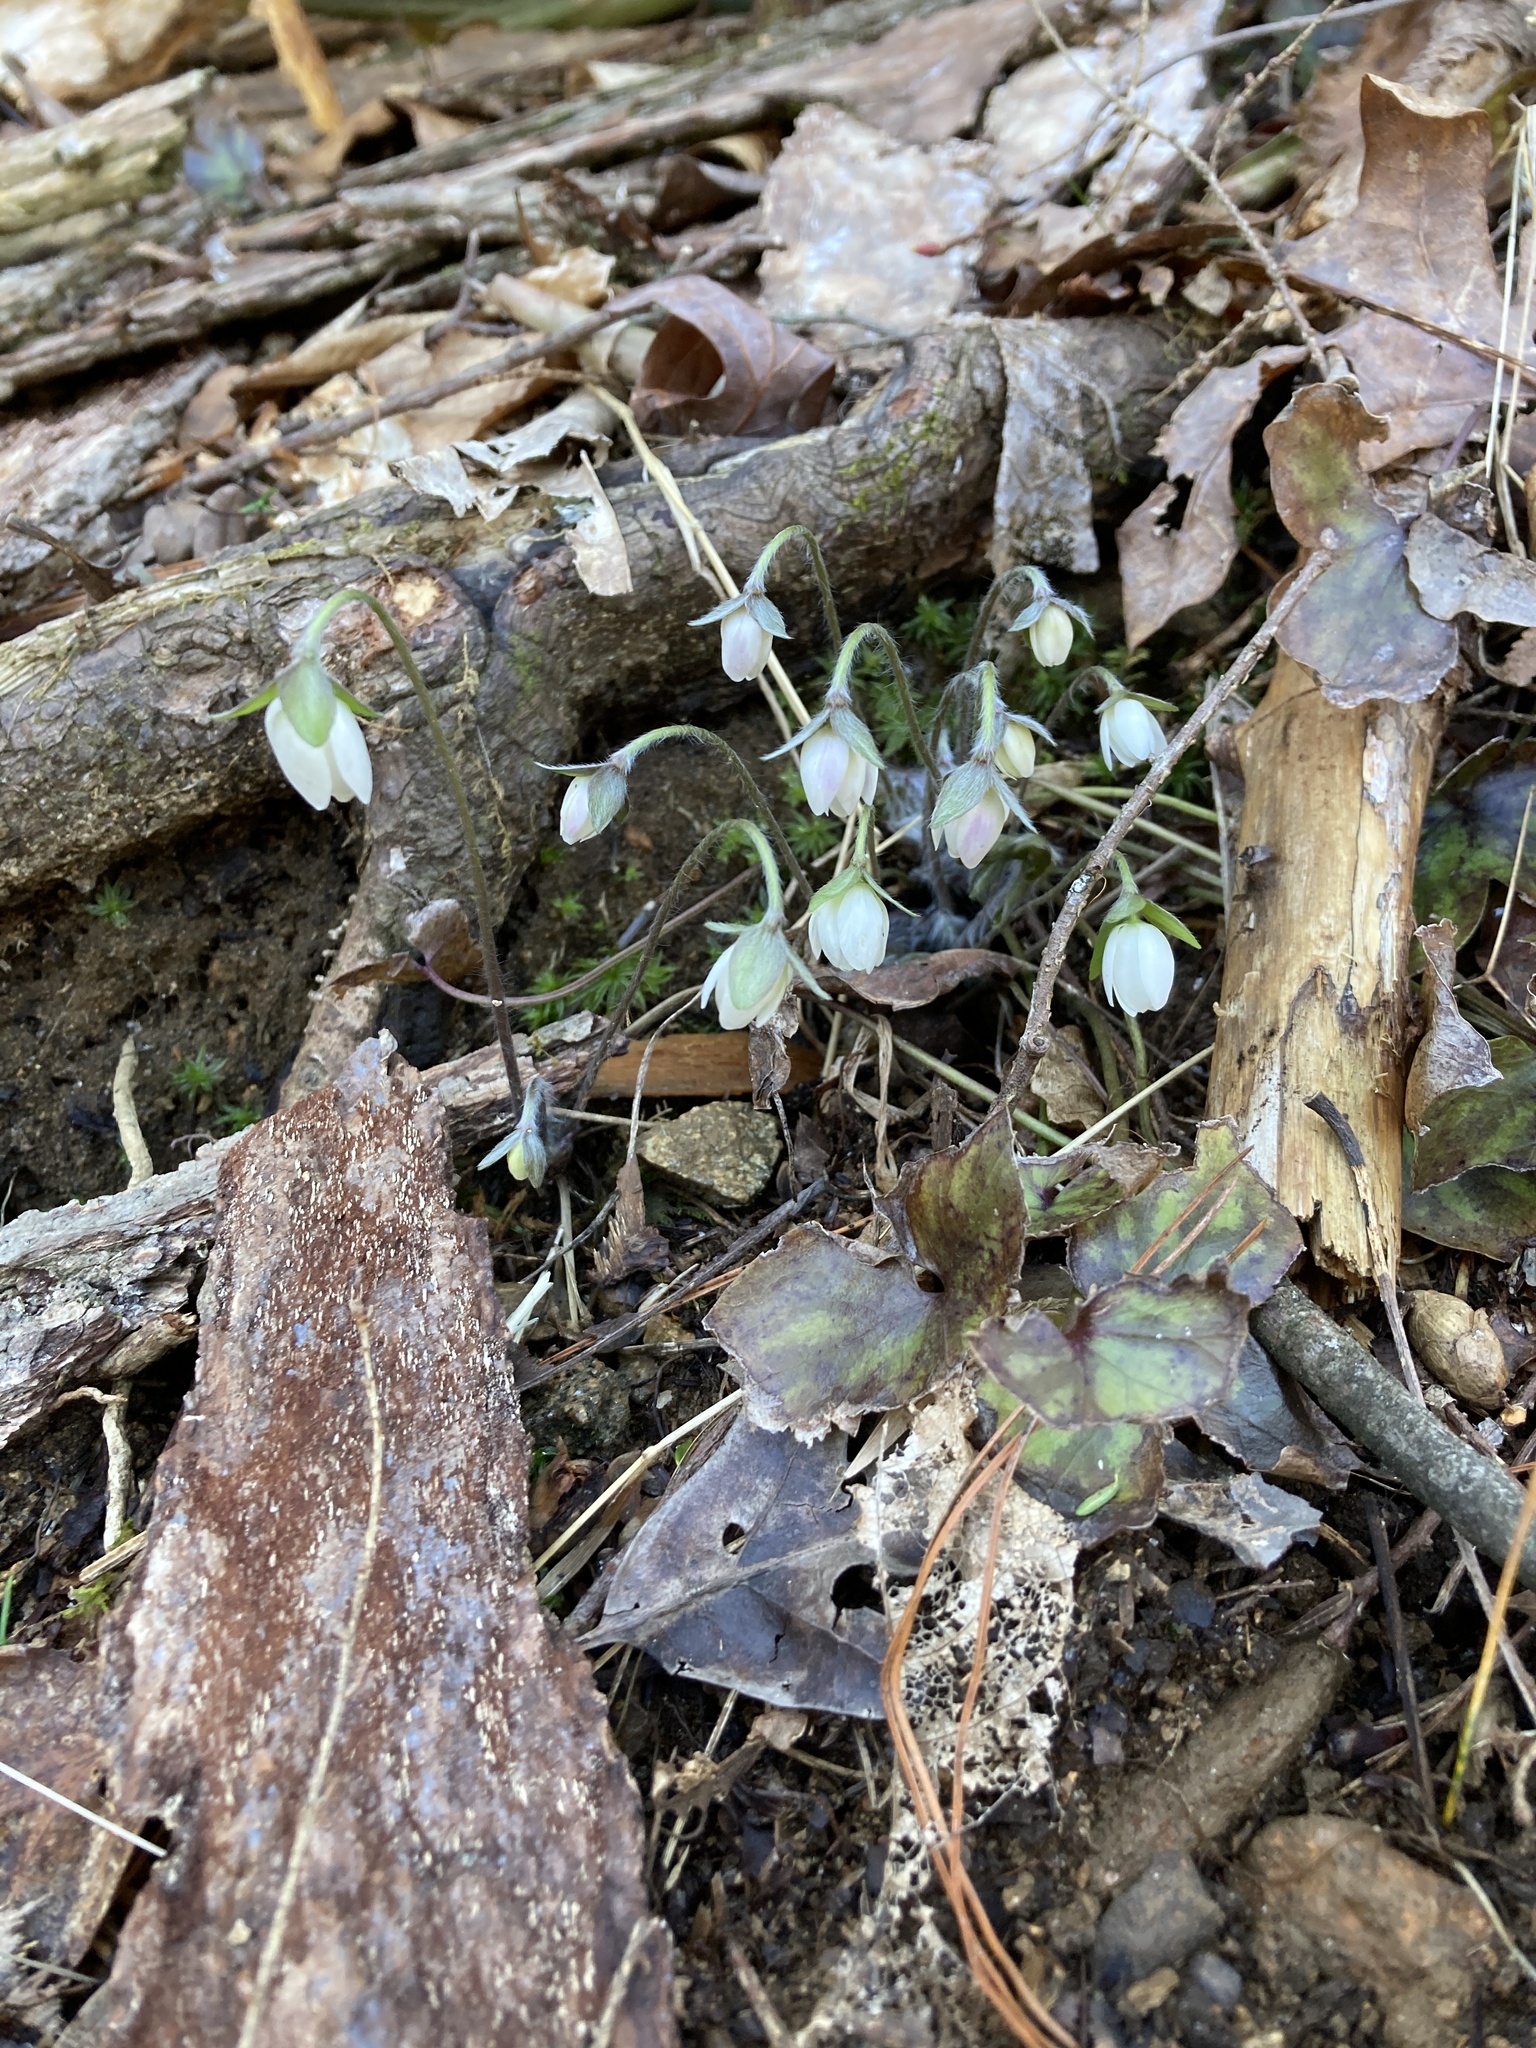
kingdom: Plantae
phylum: Tracheophyta
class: Magnoliopsida
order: Ranunculales
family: Ranunculaceae
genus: Hepatica
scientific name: Hepatica acutiloba
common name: Sharp-lobed hepatica
